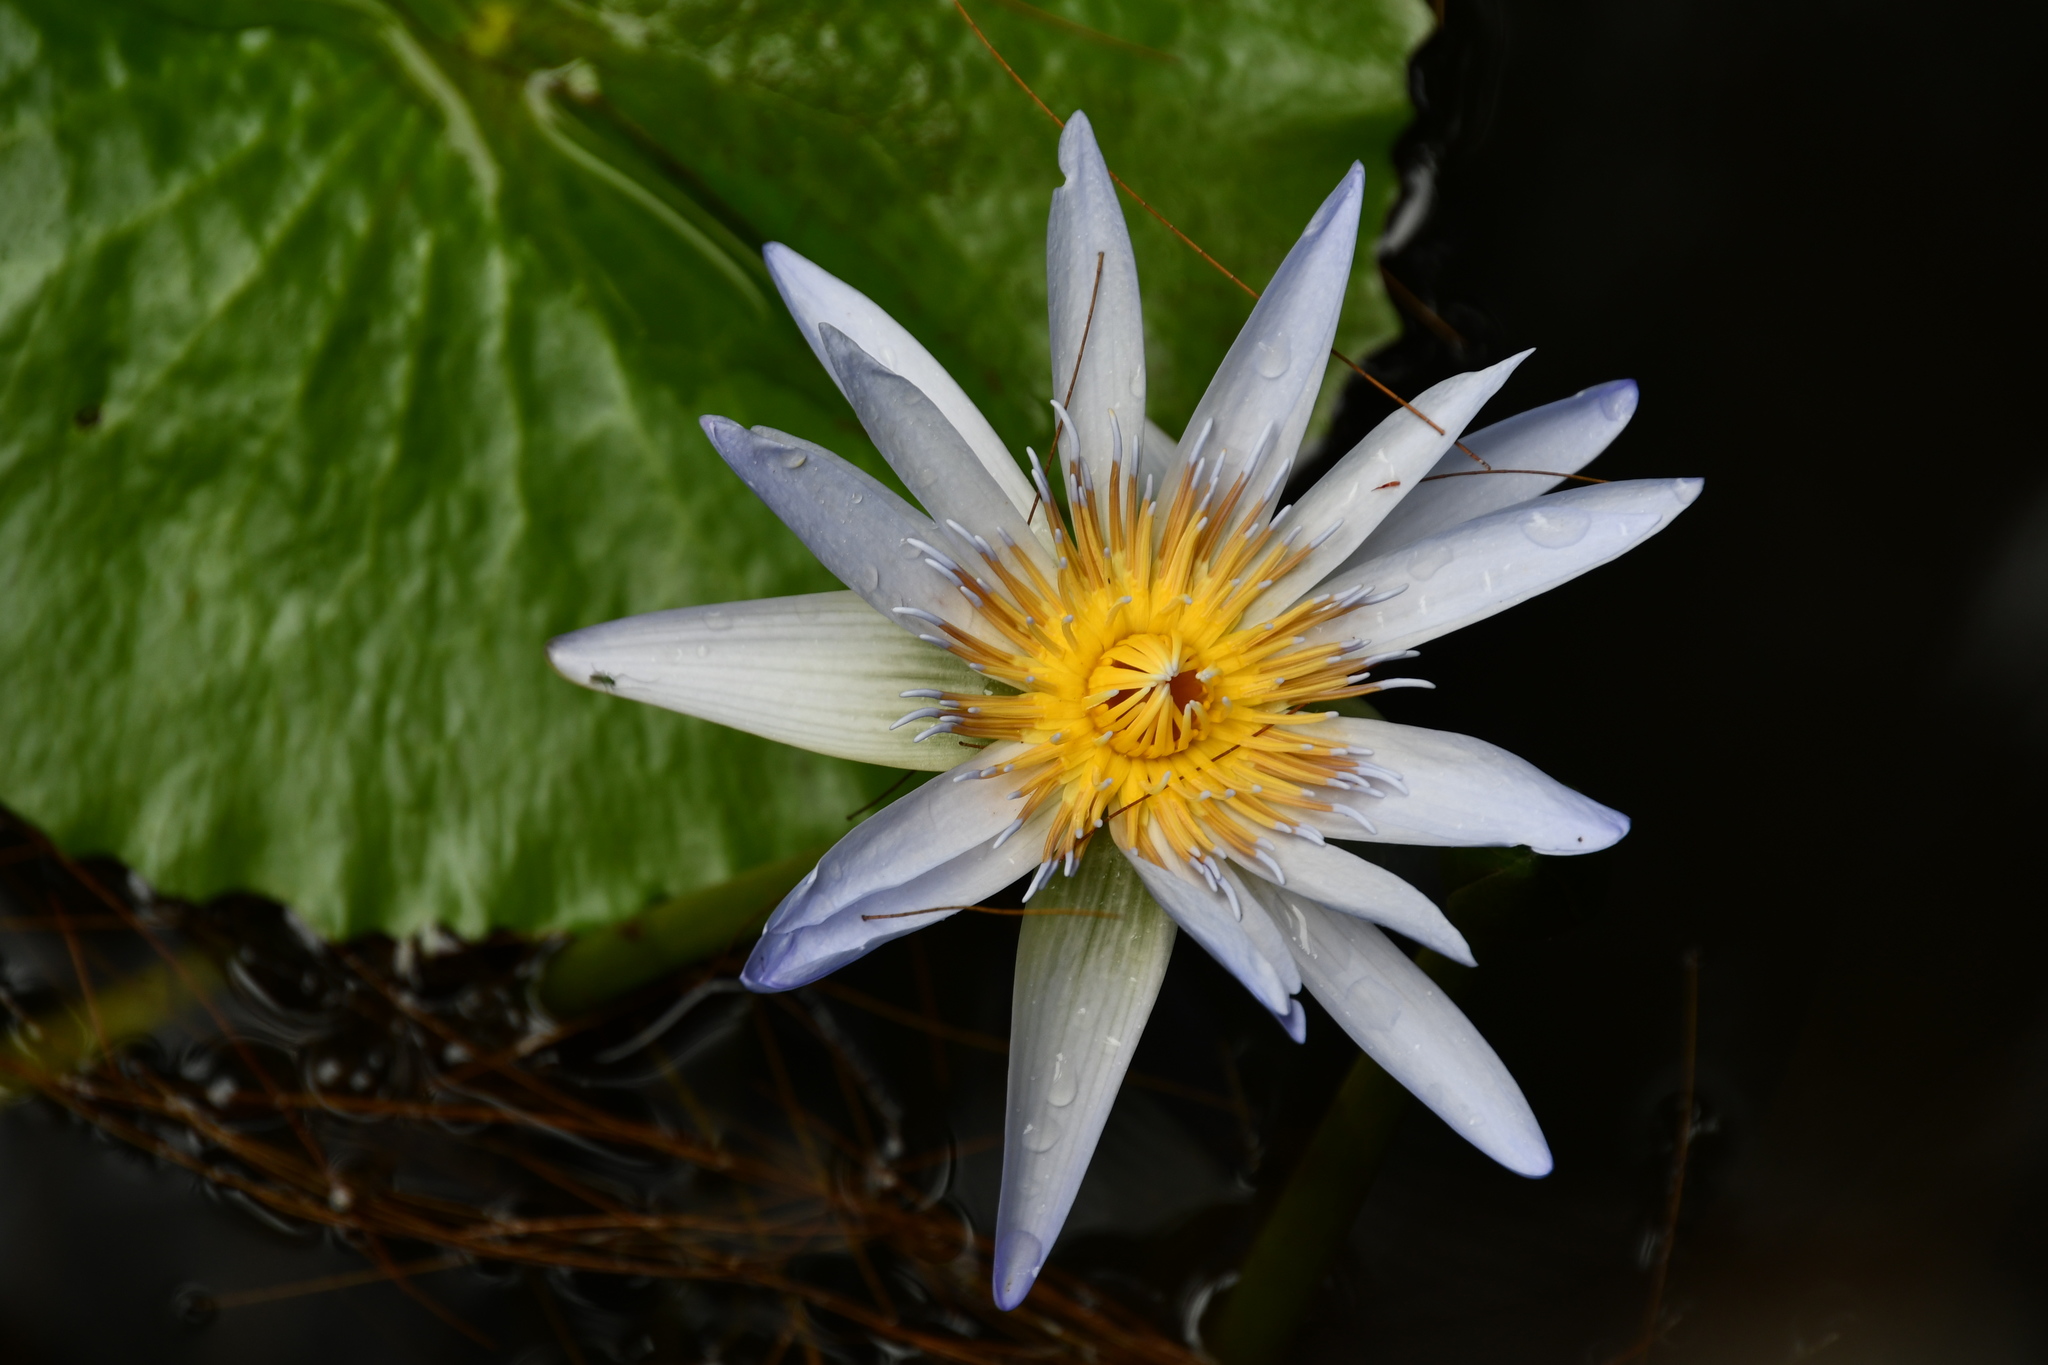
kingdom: Plantae
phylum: Tracheophyta
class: Magnoliopsida
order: Nymphaeales
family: Nymphaeaceae
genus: Nymphaea
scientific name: Nymphaea nouchali
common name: Blue lotus
